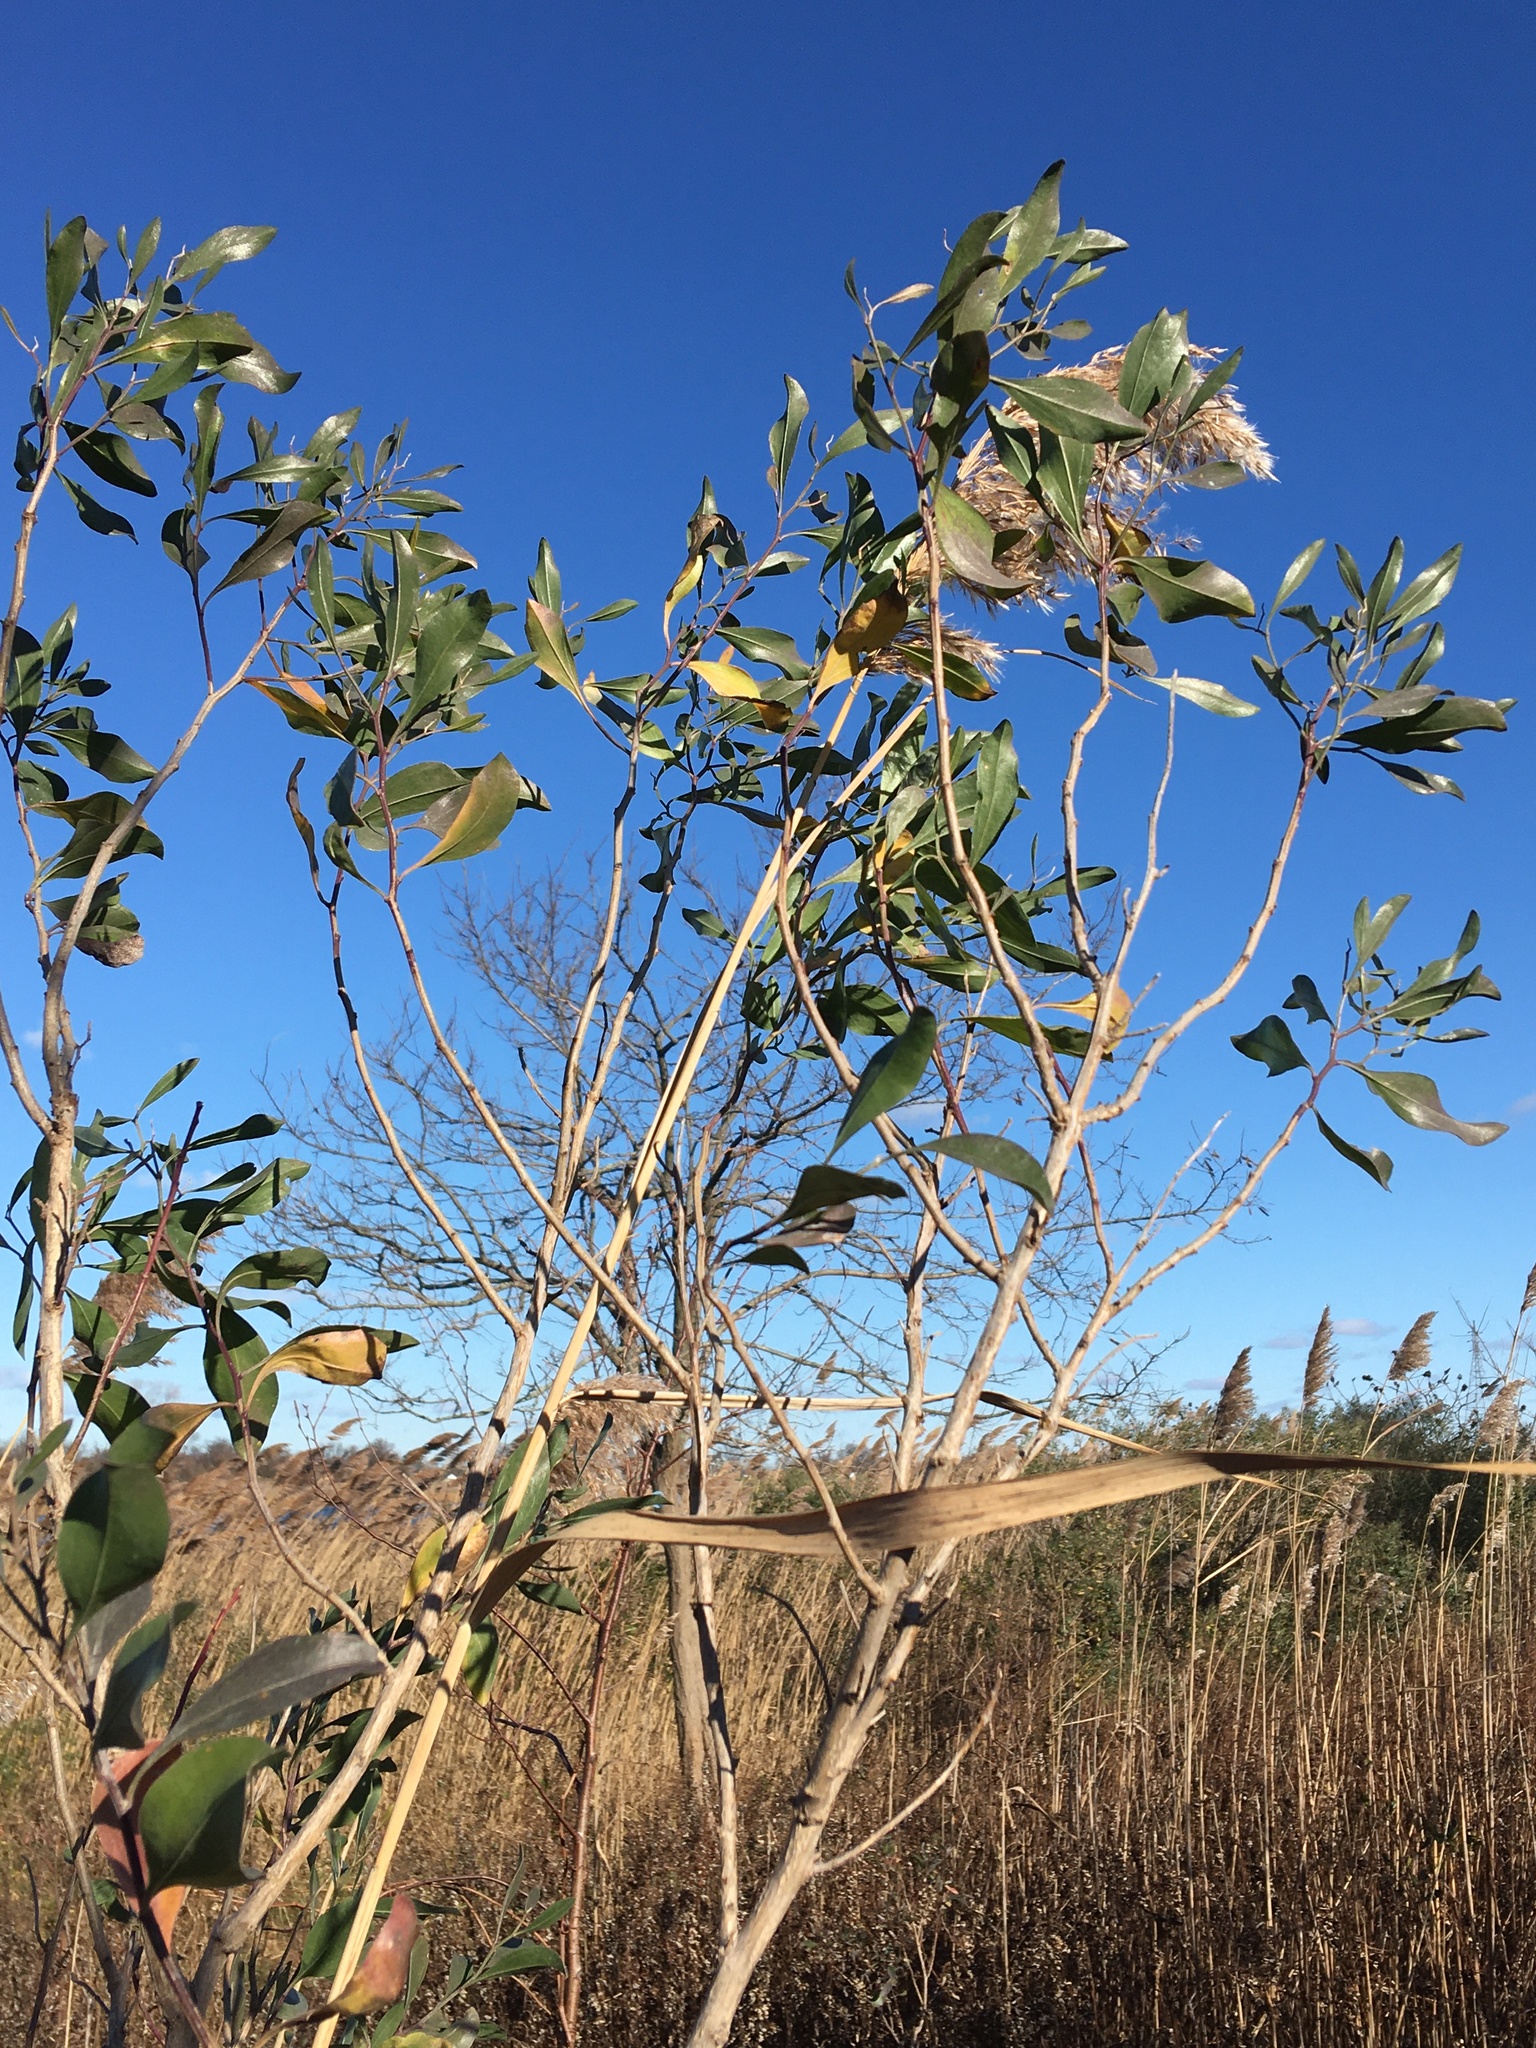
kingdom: Plantae
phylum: Tracheophyta
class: Magnoliopsida
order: Asterales
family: Asteraceae
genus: Baccharis
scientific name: Baccharis halimifolia
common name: Eastern baccharis
